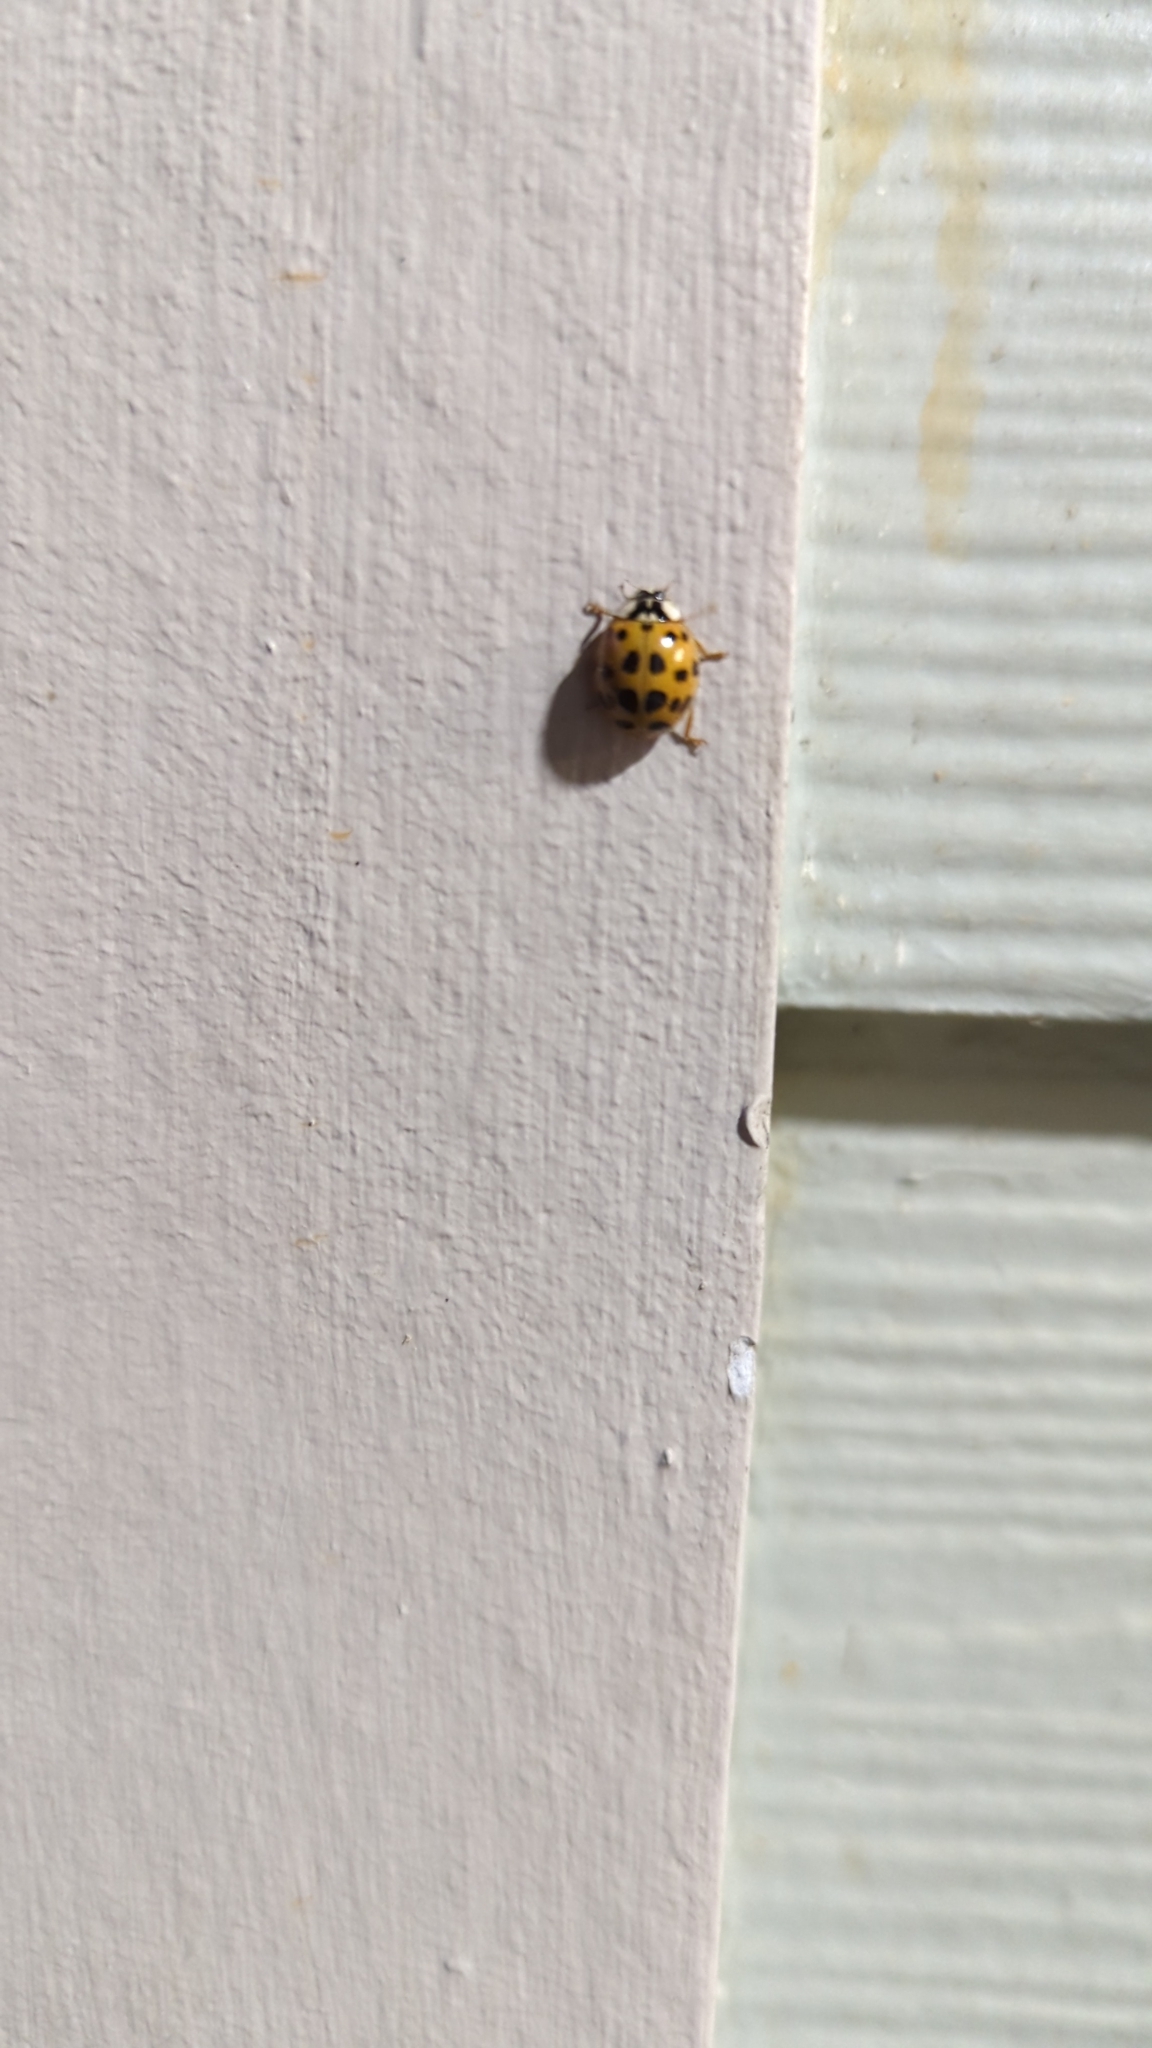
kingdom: Animalia
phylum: Arthropoda
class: Insecta
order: Coleoptera
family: Coccinellidae
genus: Harmonia
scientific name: Harmonia axyridis
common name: Harlequin ladybird
